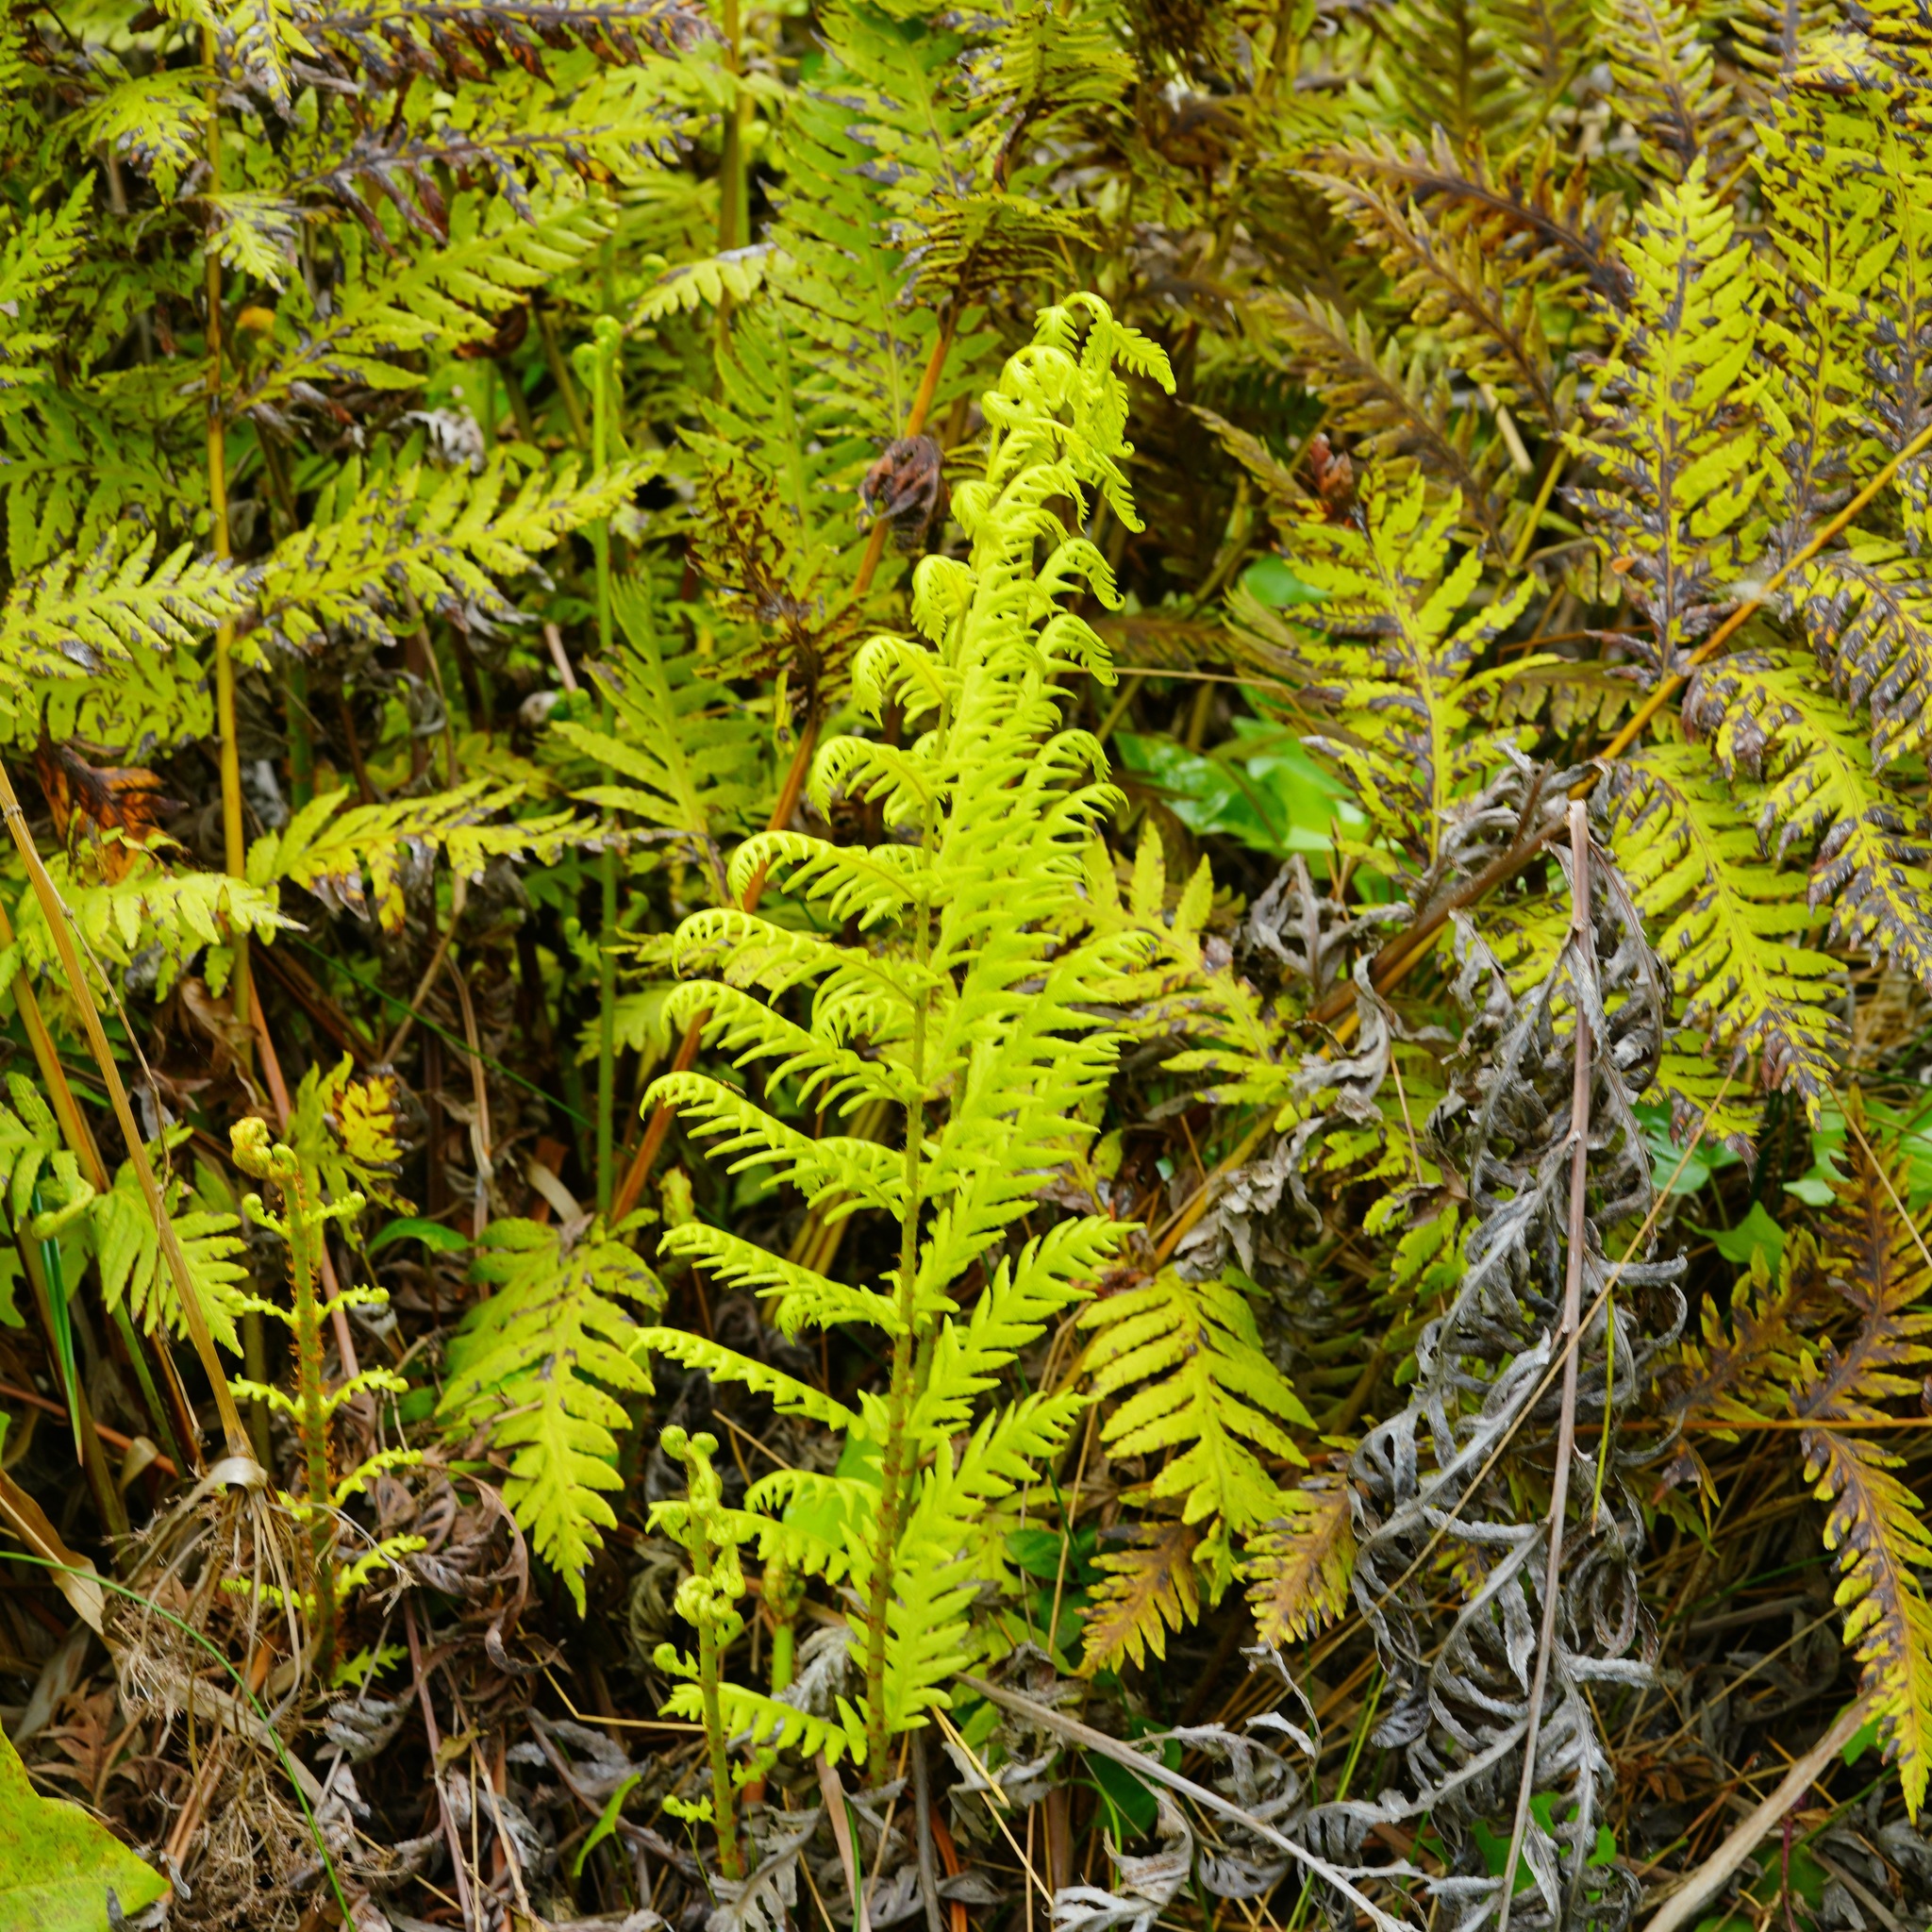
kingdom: Plantae
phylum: Tracheophyta
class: Polypodiopsida
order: Polypodiales
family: Blechnaceae
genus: Woodwardia
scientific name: Woodwardia fimbriata
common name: Giant chain fern
